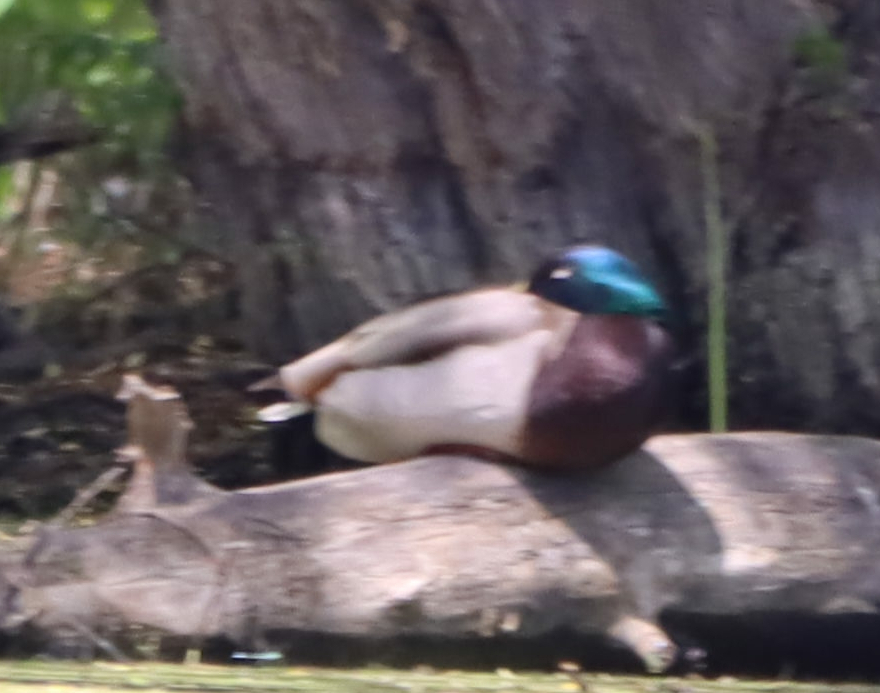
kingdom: Animalia
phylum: Chordata
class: Aves
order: Anseriformes
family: Anatidae
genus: Anas
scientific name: Anas platyrhynchos
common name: Mallard
